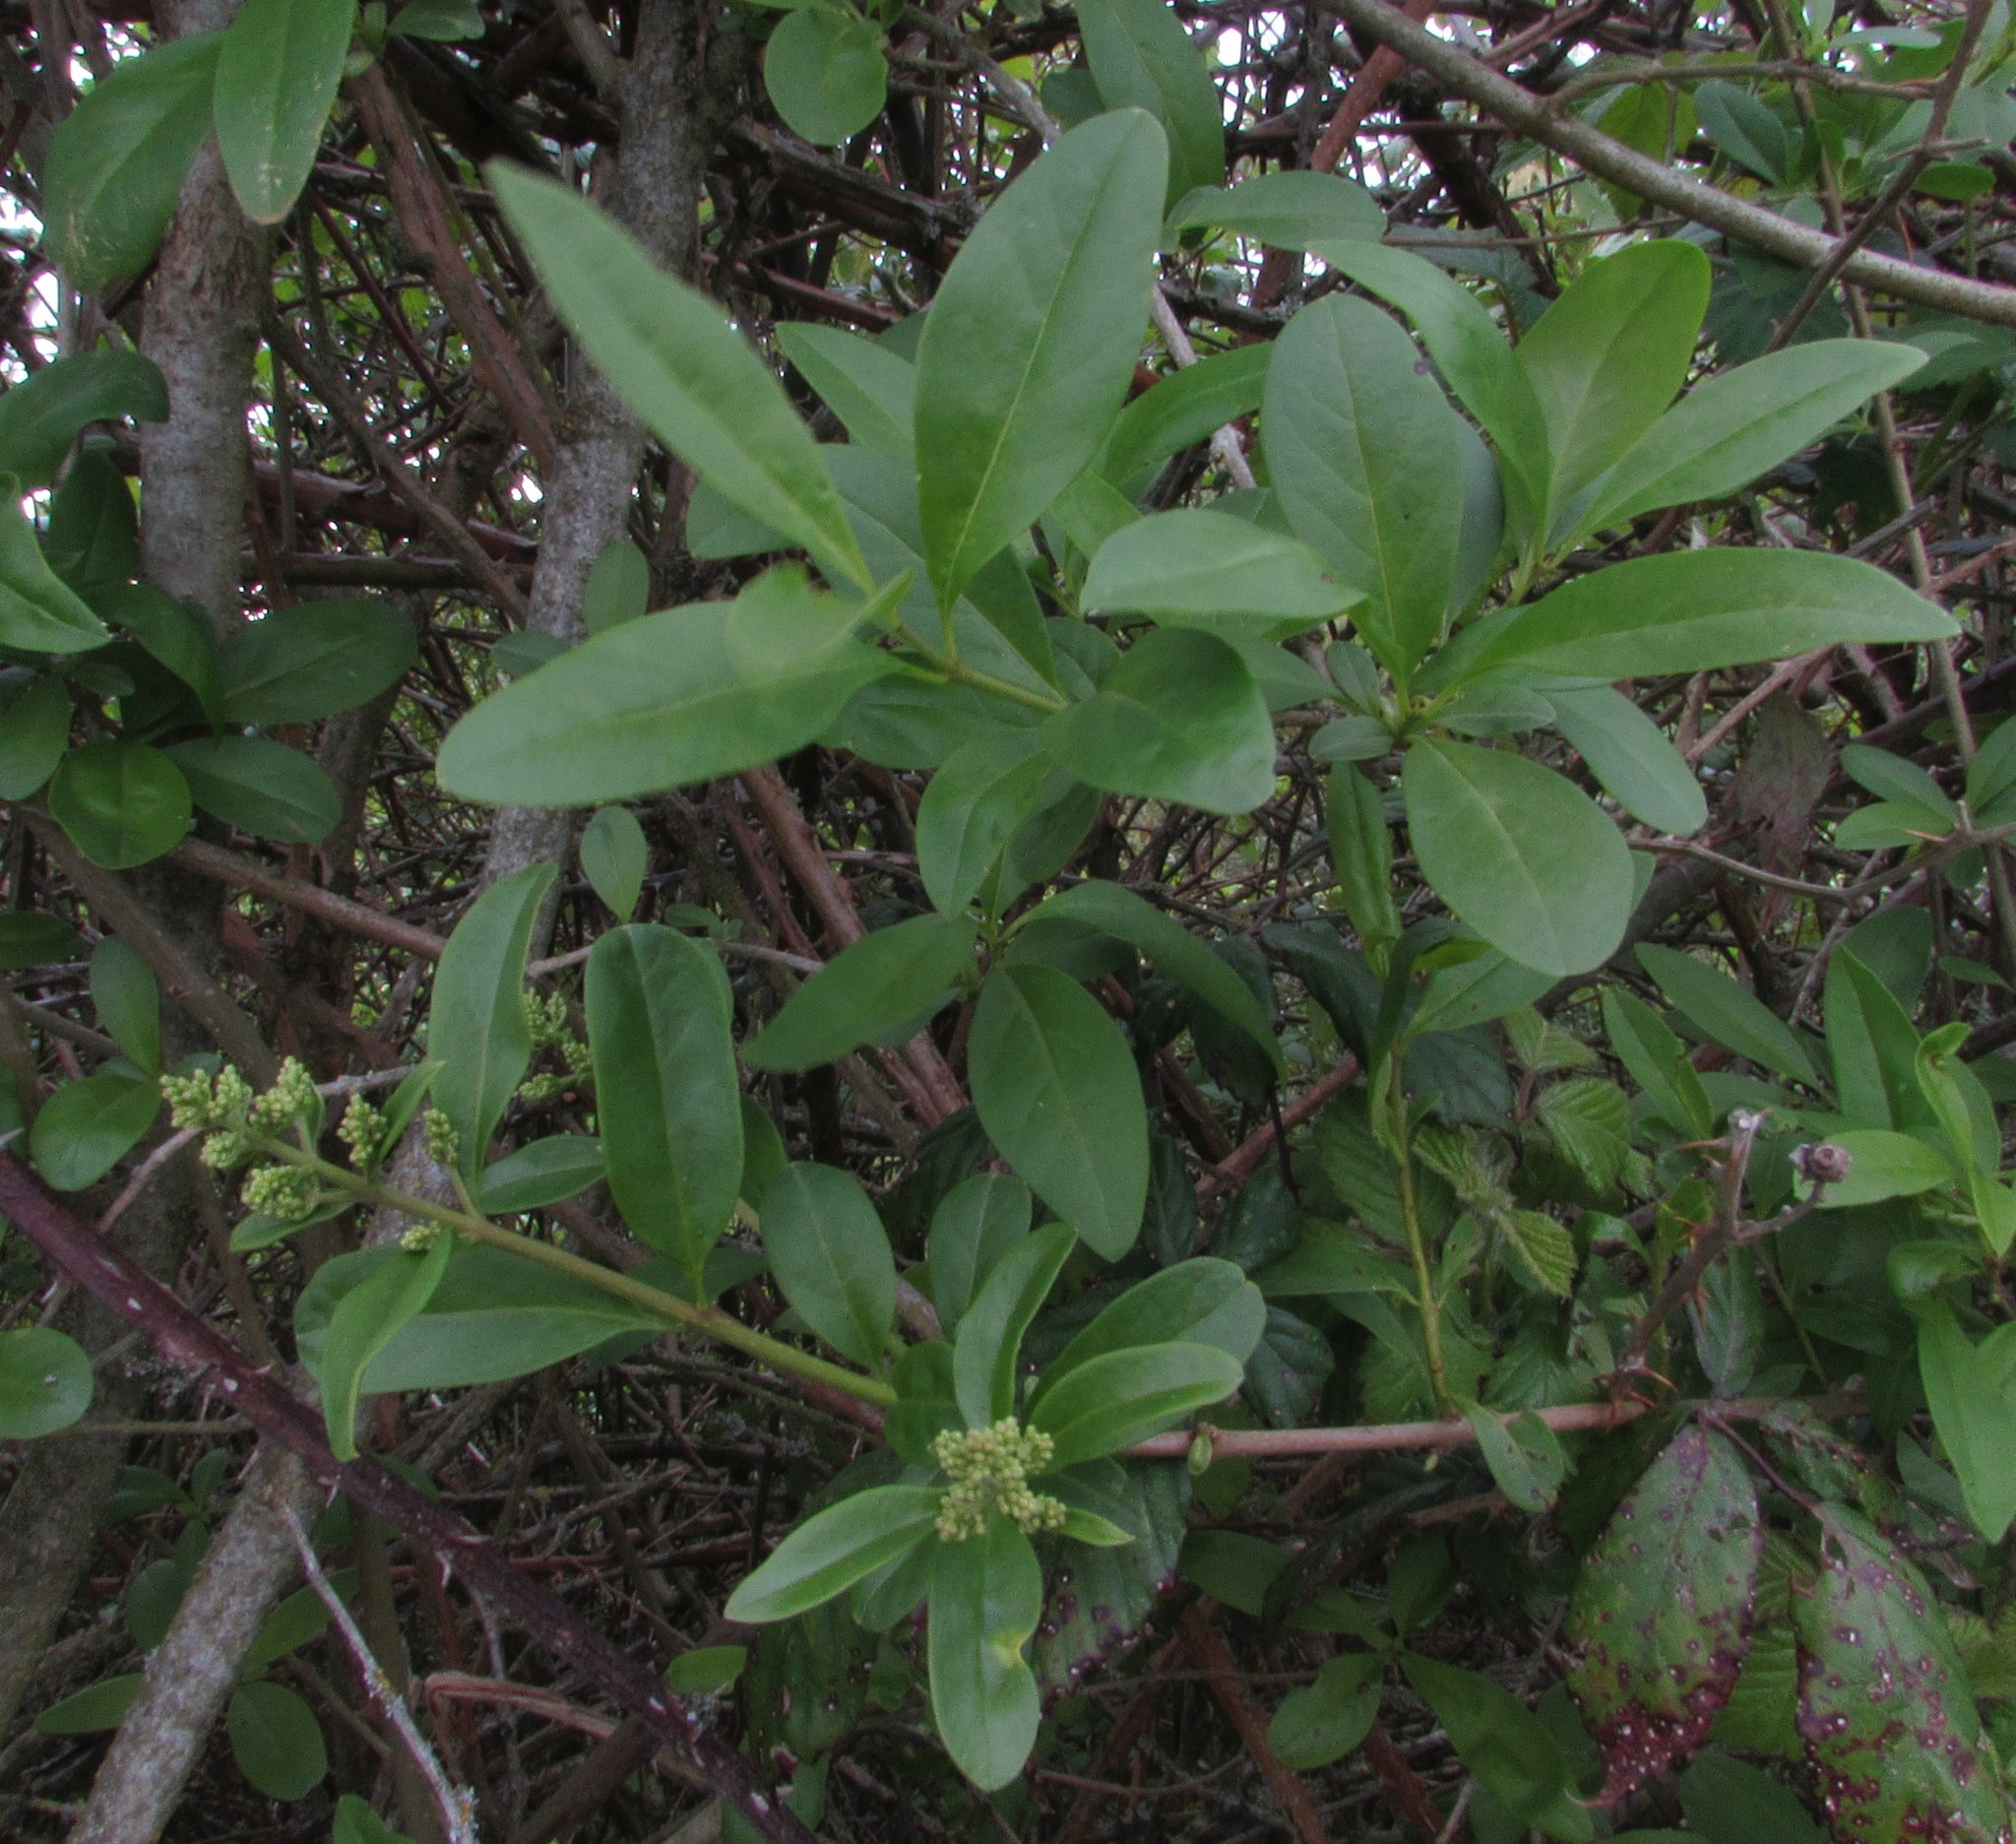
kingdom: Plantae
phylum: Tracheophyta
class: Magnoliopsida
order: Lamiales
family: Oleaceae
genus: Ligustrum
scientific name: Ligustrum ovalifolium
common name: California privet
